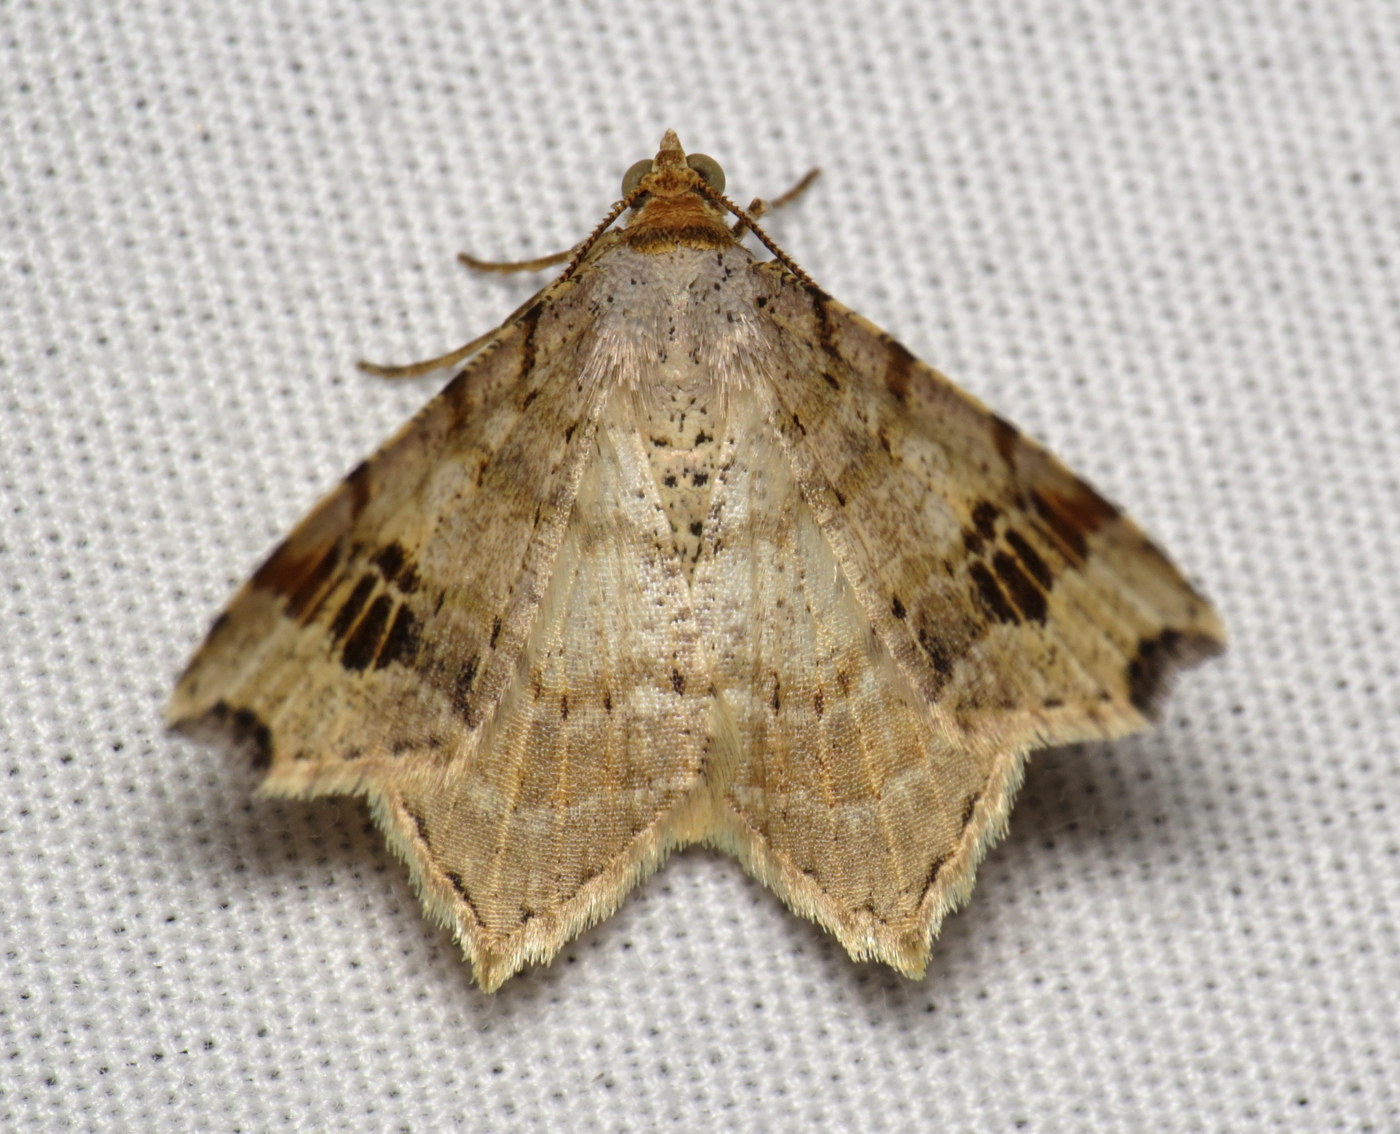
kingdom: Animalia
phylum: Arthropoda
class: Insecta
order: Lepidoptera
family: Geometridae
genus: Macaria
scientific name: Macaria aemulataria
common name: Common angle
